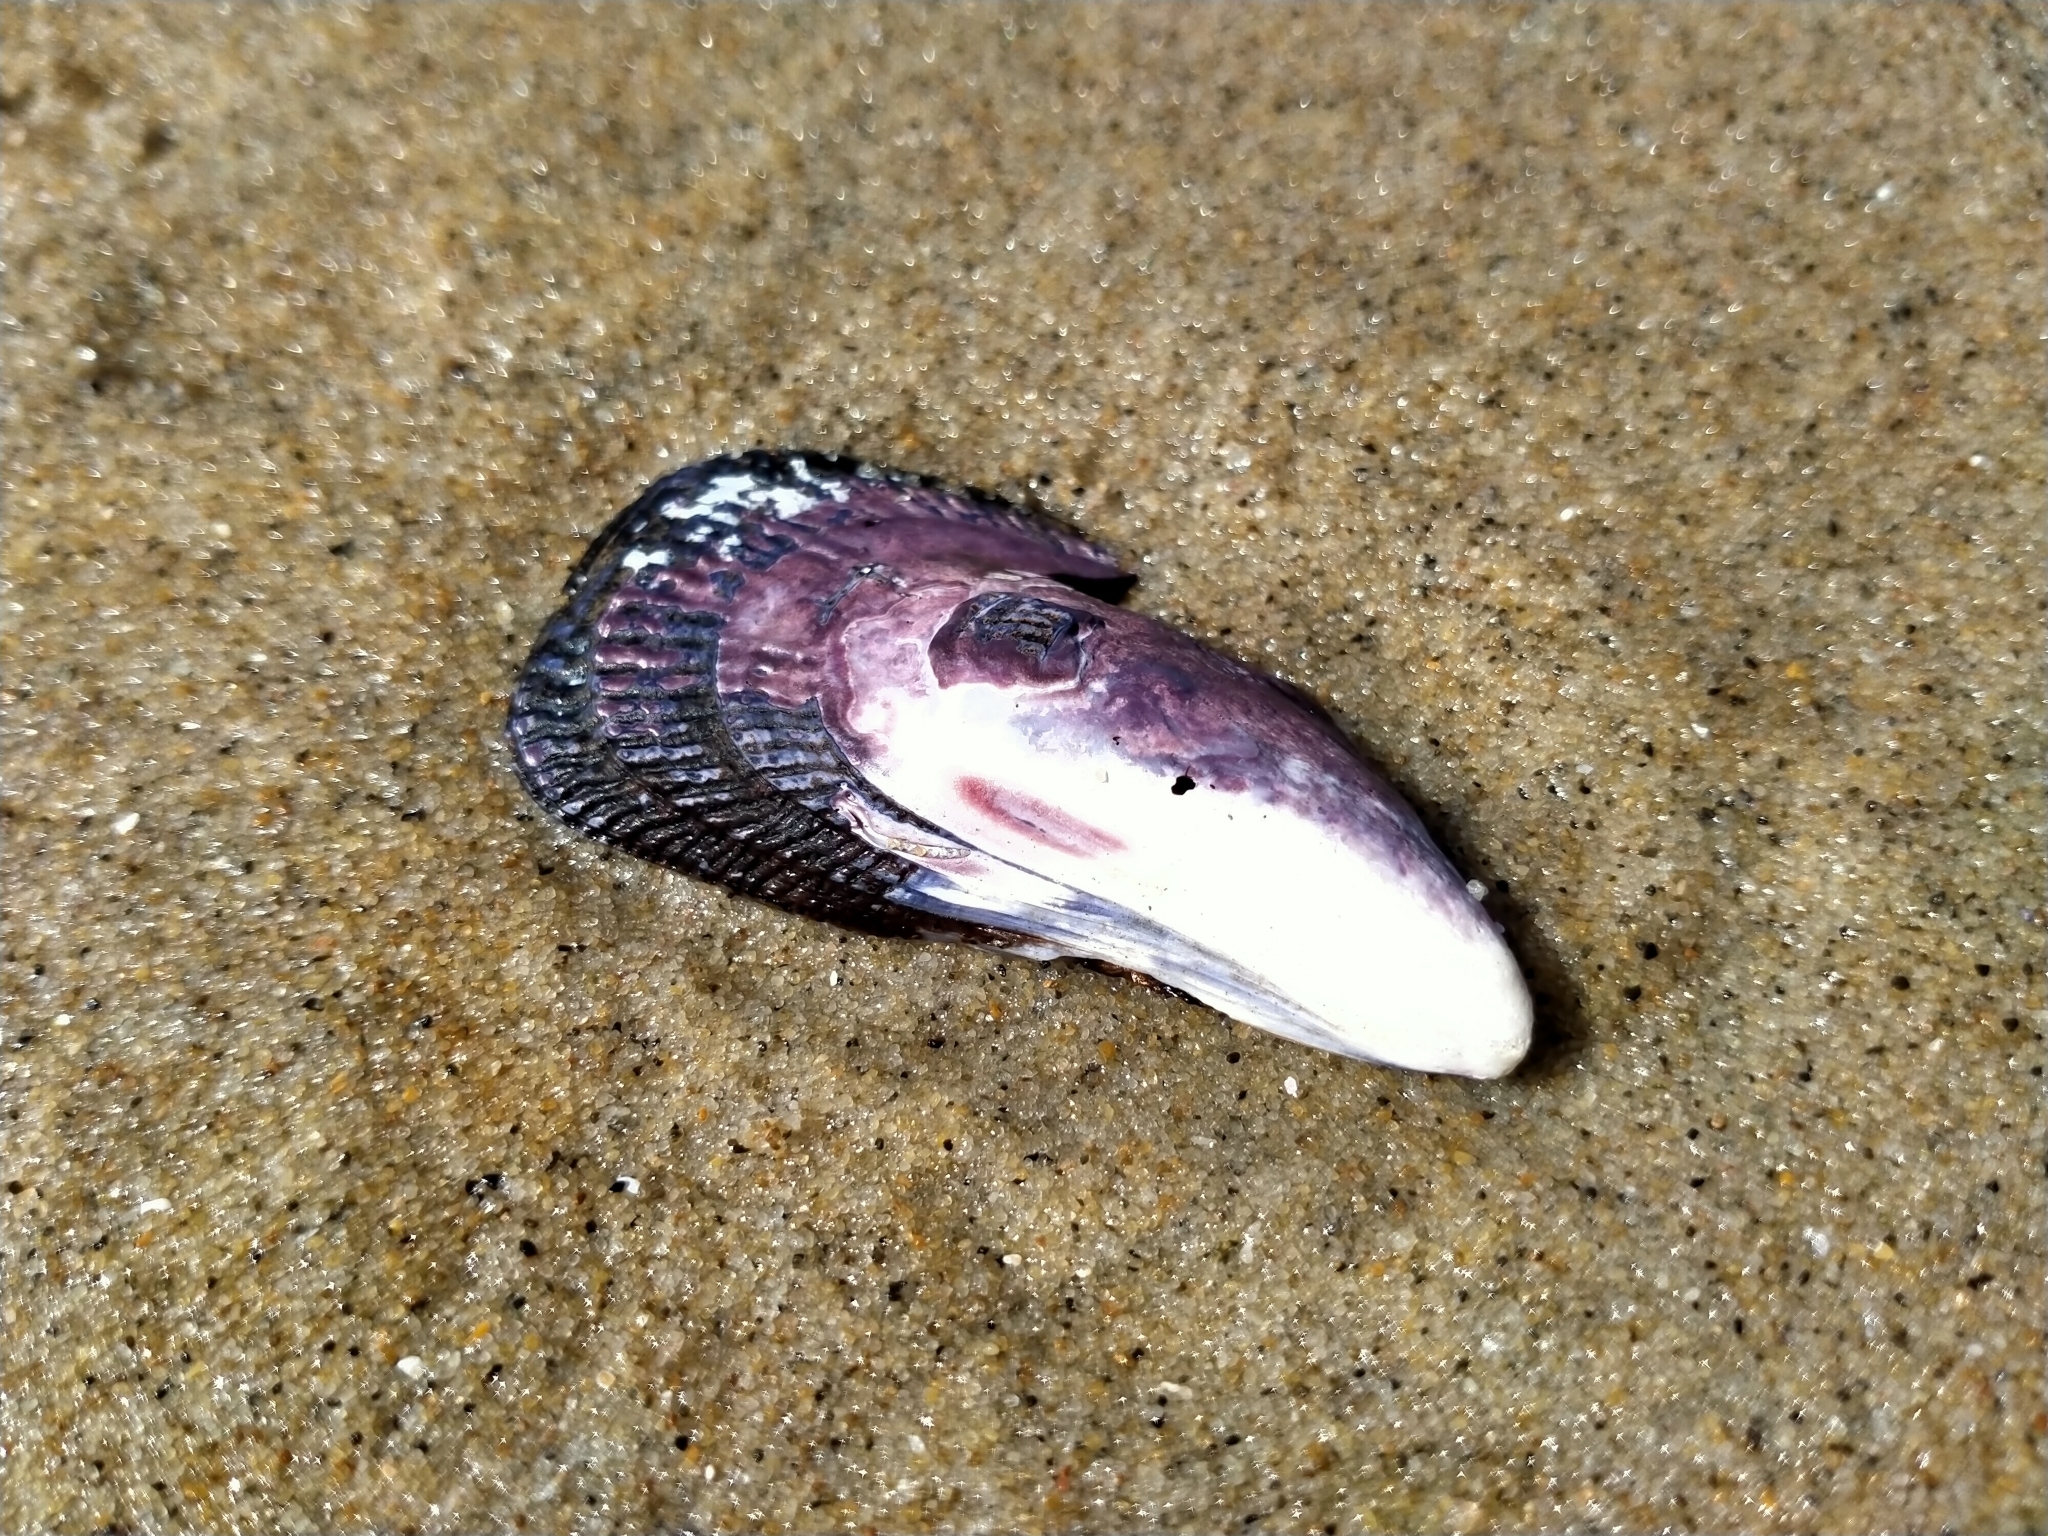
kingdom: Animalia
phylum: Mollusca
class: Bivalvia
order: Mytilida
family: Mytilidae
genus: Aulacomya
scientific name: Aulacomya maoriana
